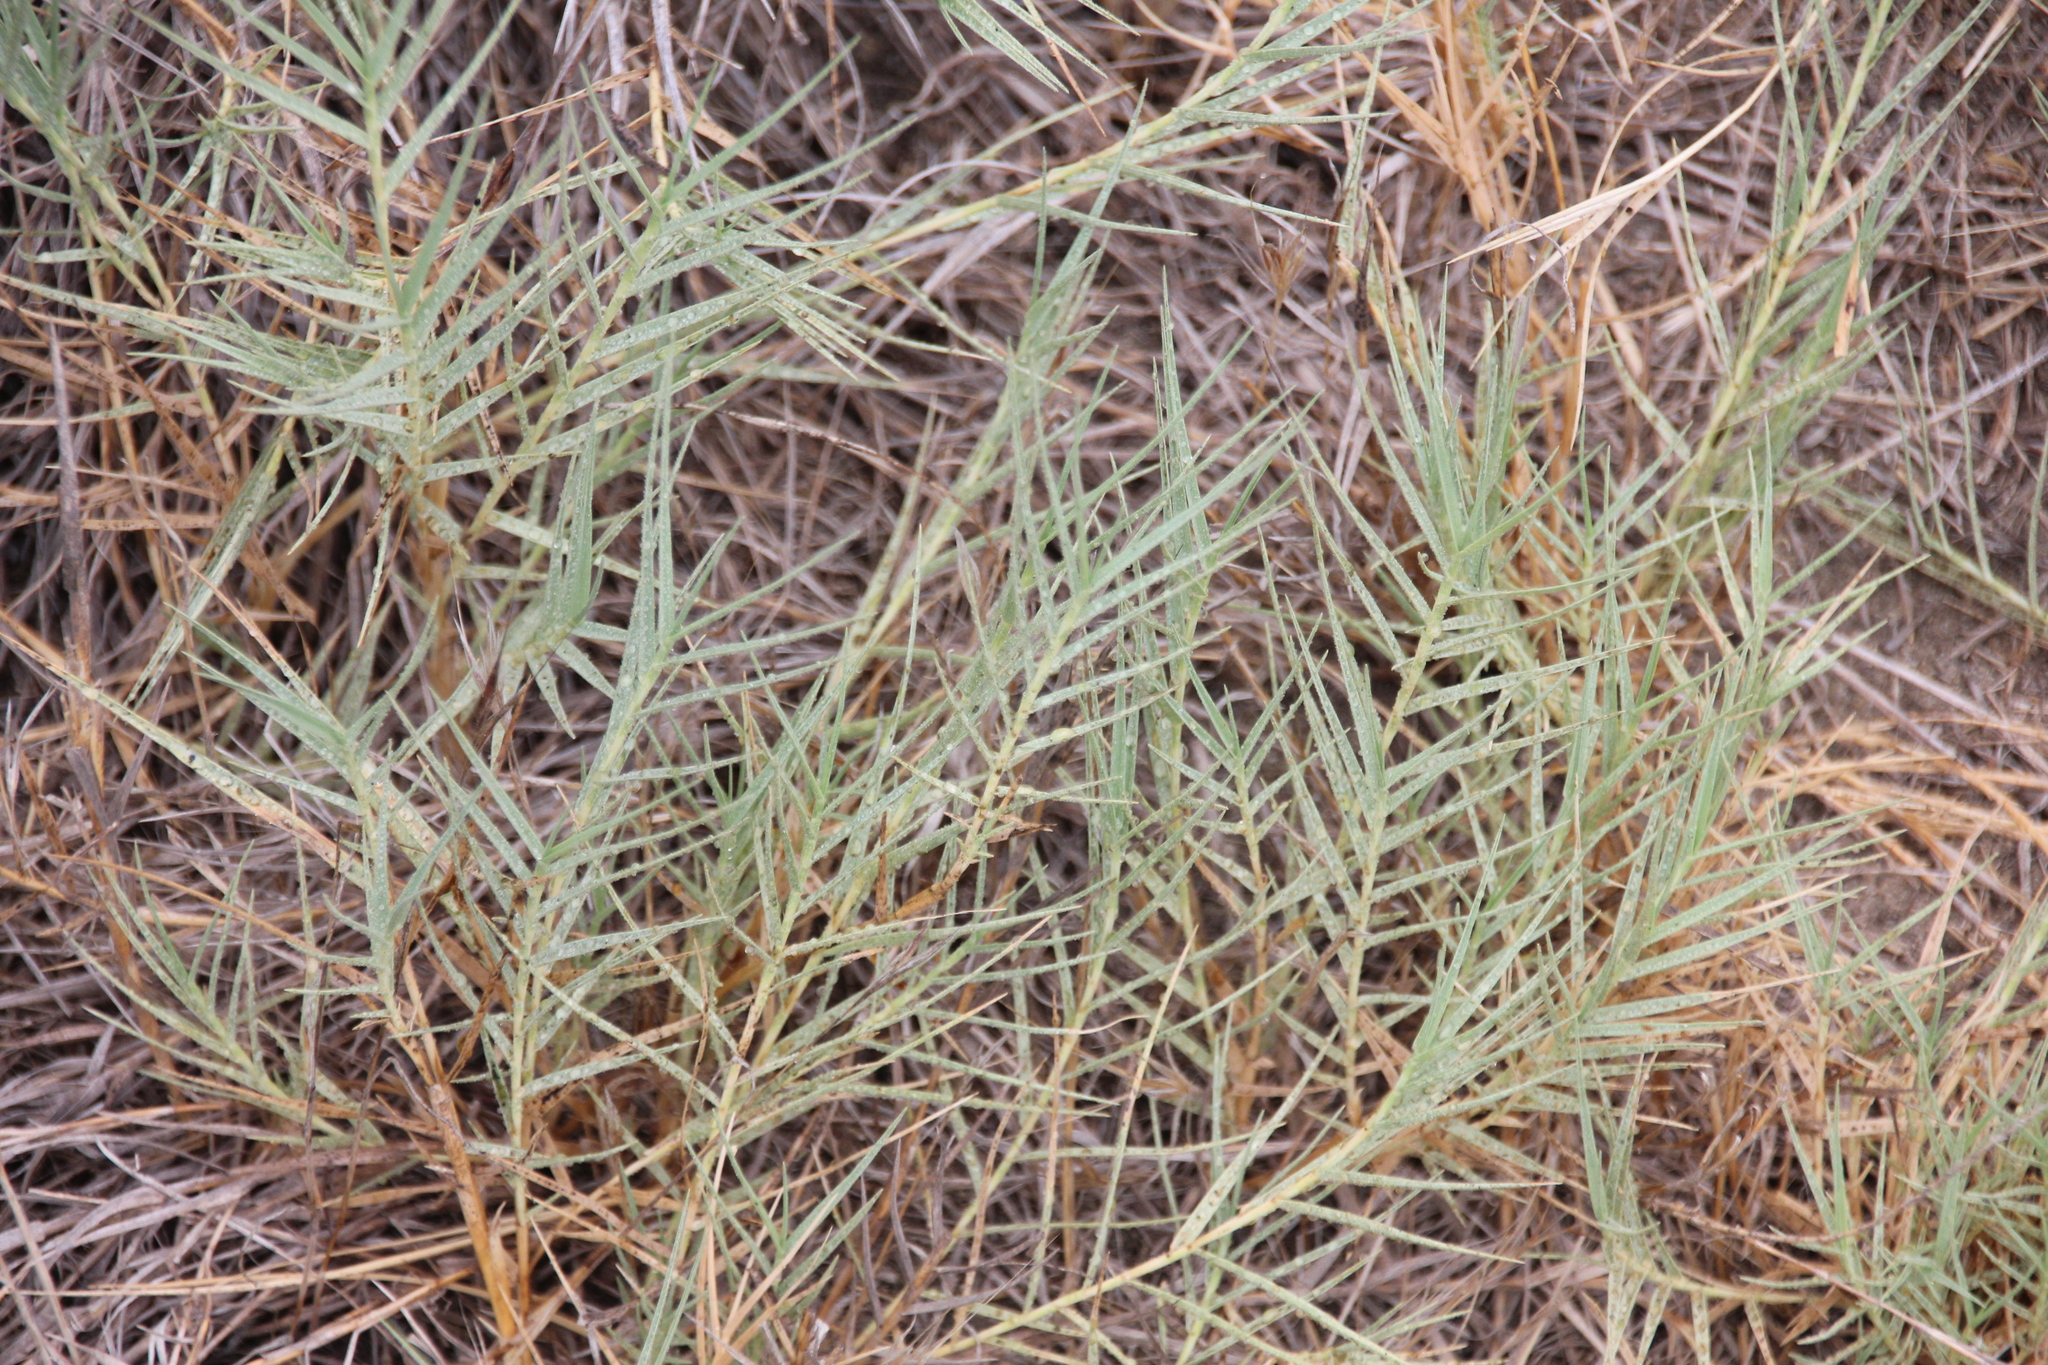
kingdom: Plantae
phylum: Tracheophyta
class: Liliopsida
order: Poales
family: Poaceae
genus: Distichlis
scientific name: Distichlis spicata
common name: Saltgrass
